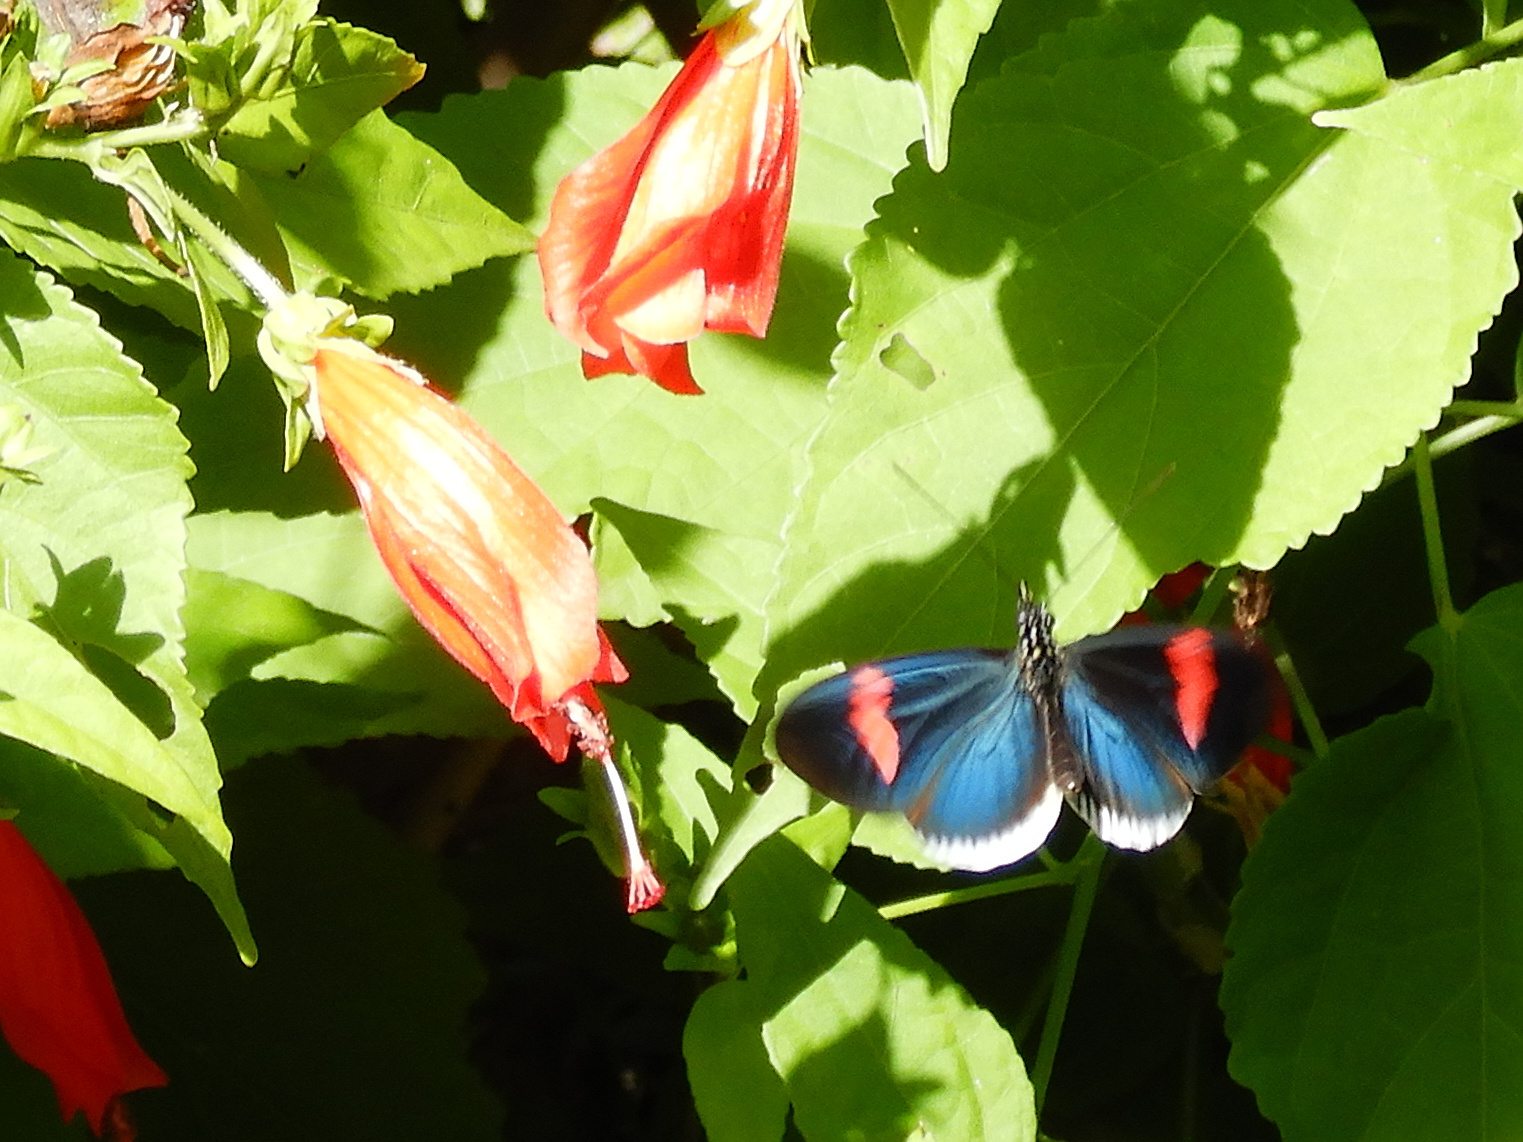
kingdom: Animalia
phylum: Arthropoda
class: Insecta
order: Lepidoptera
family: Nymphalidae
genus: Heliconius
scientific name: Heliconius erato
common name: Common patch longwing
